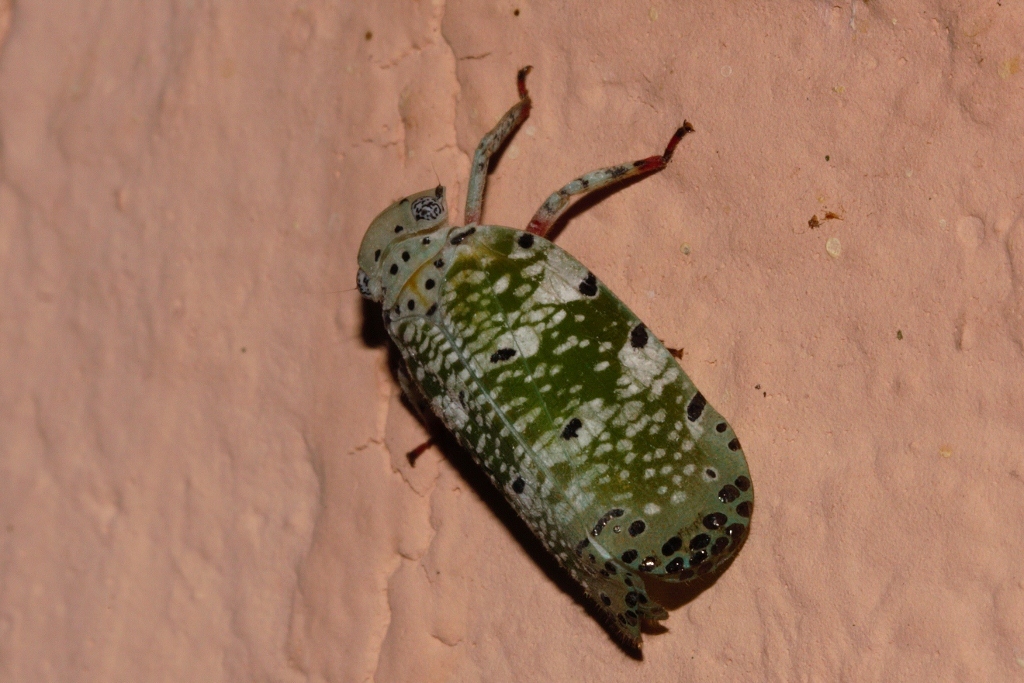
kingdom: Animalia
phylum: Arthropoda
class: Insecta
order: Hemiptera
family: Eurybrachidae
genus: Paropioxys
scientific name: Paropioxys jucundus
